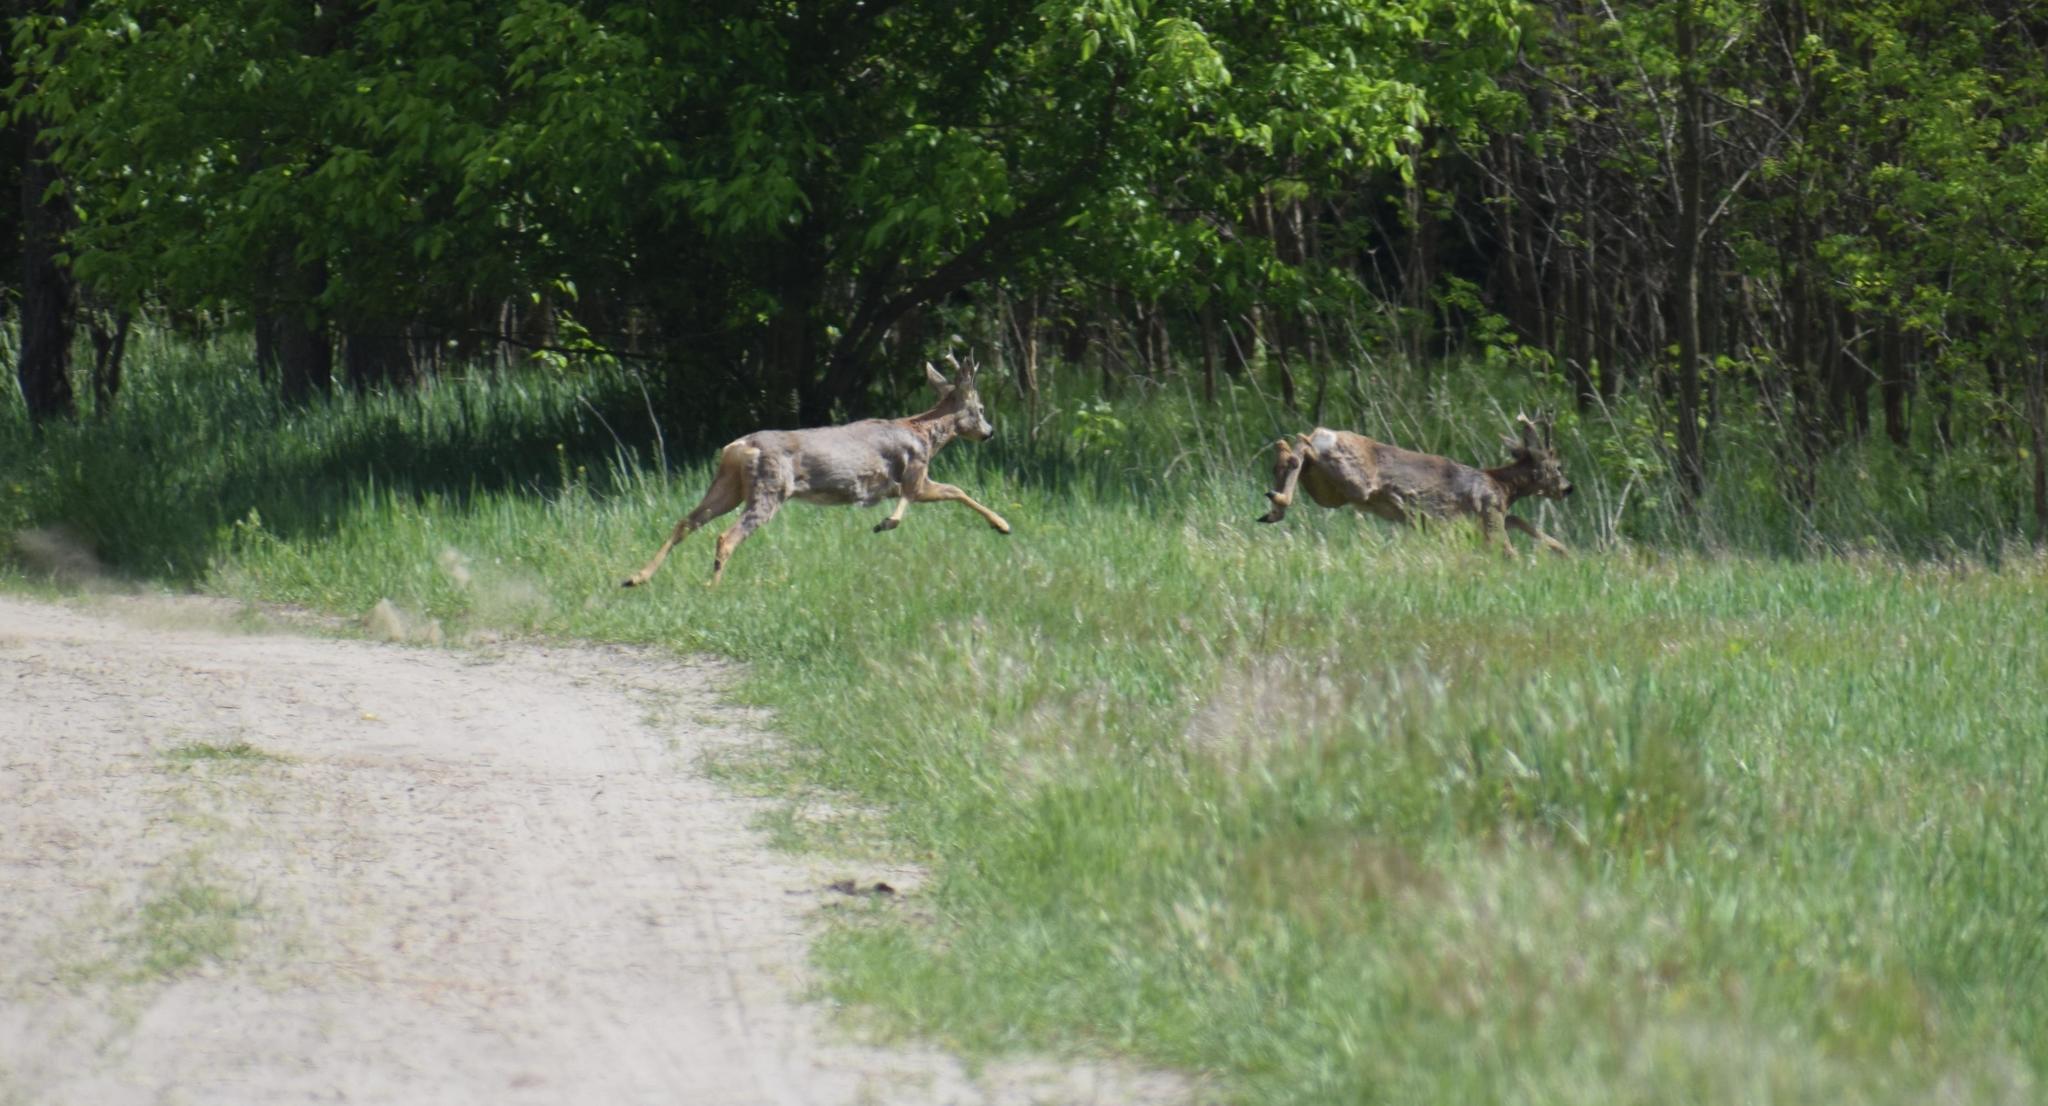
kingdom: Animalia
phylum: Chordata
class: Mammalia
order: Artiodactyla
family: Cervidae
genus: Capreolus
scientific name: Capreolus capreolus
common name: Western roe deer
